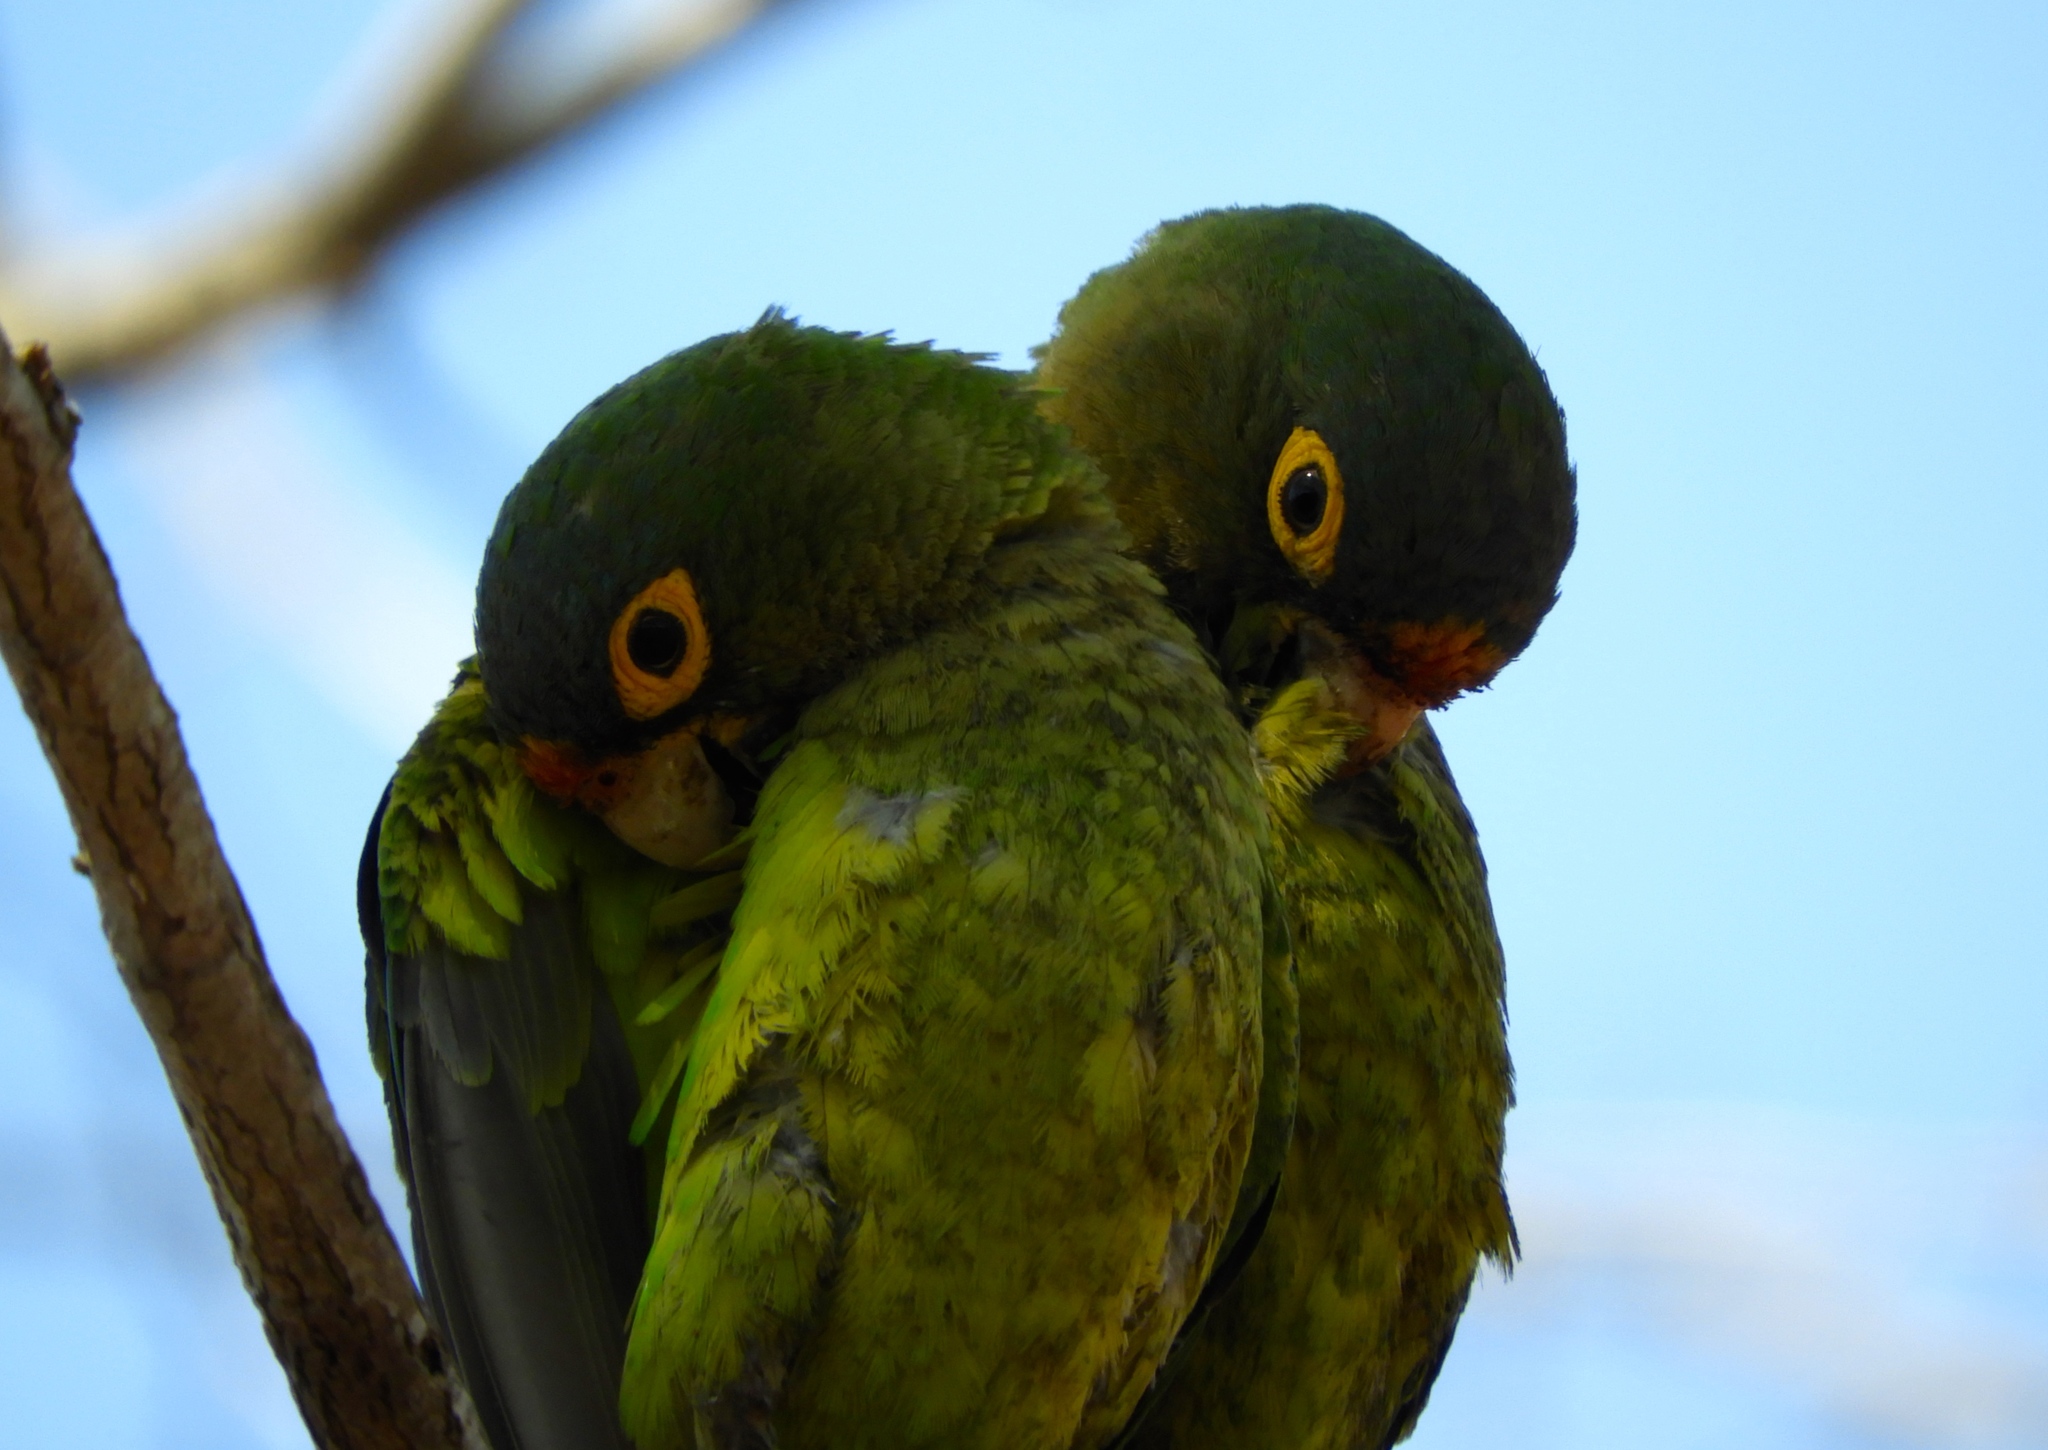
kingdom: Animalia
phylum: Chordata
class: Aves
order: Psittaciformes
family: Psittacidae
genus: Aratinga
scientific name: Aratinga canicularis
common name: Orange-fronted parakeet
